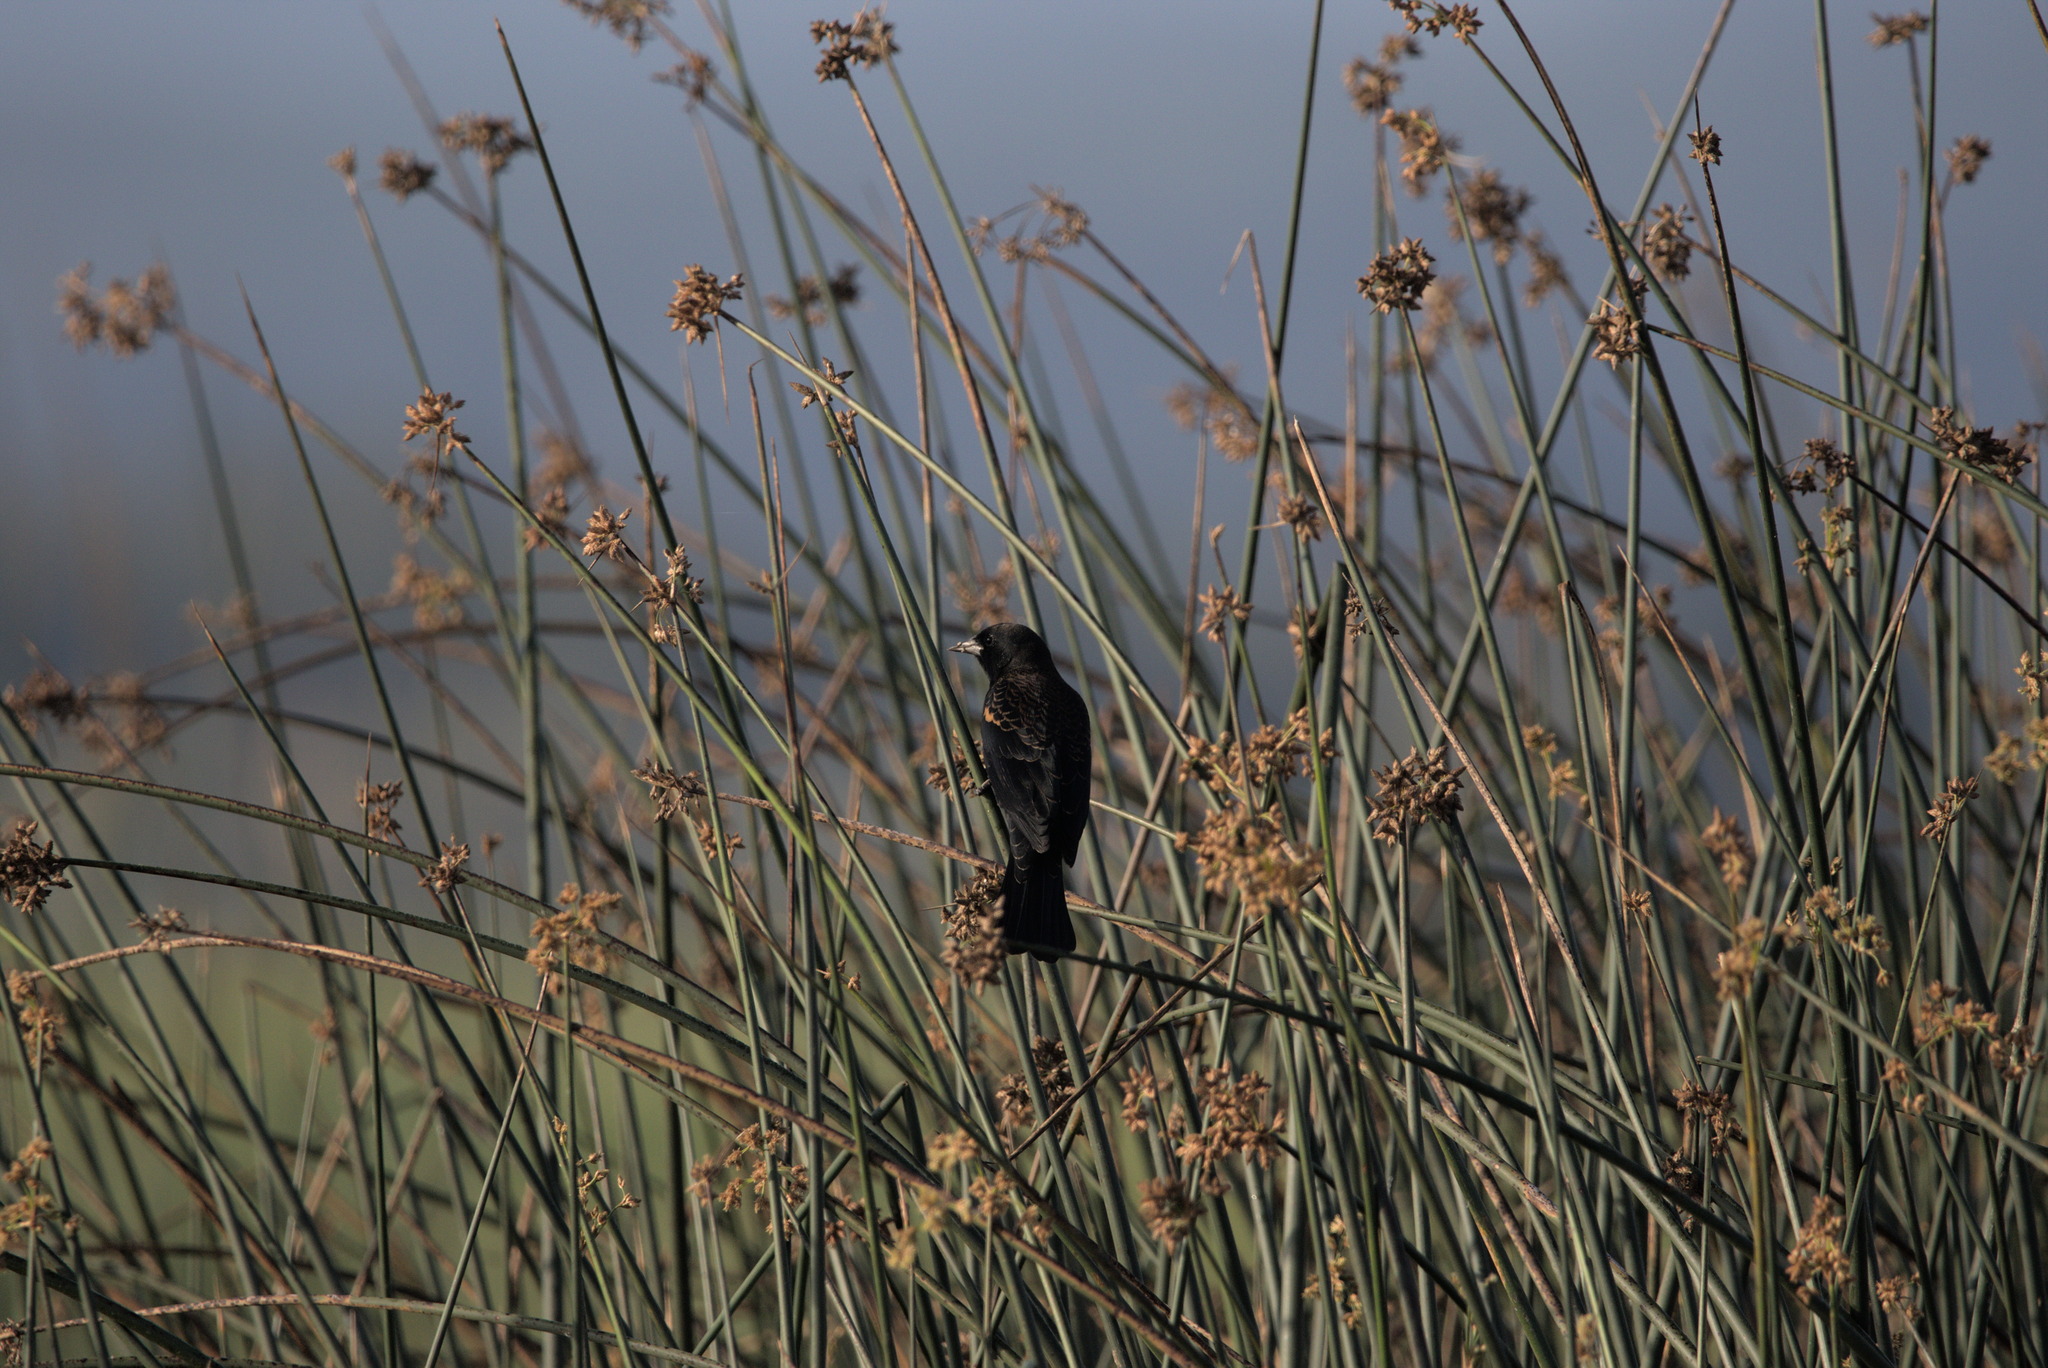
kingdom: Animalia
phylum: Chordata
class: Aves
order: Passeriformes
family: Icteridae
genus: Agelaius
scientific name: Agelaius phoeniceus
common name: Red-winged blackbird
